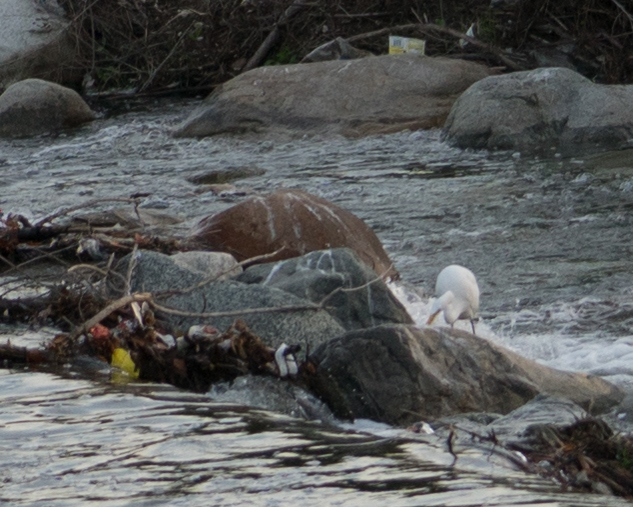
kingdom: Animalia
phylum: Chordata
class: Aves
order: Pelecaniformes
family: Ardeidae
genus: Egretta
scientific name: Egretta thula
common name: Snowy egret
